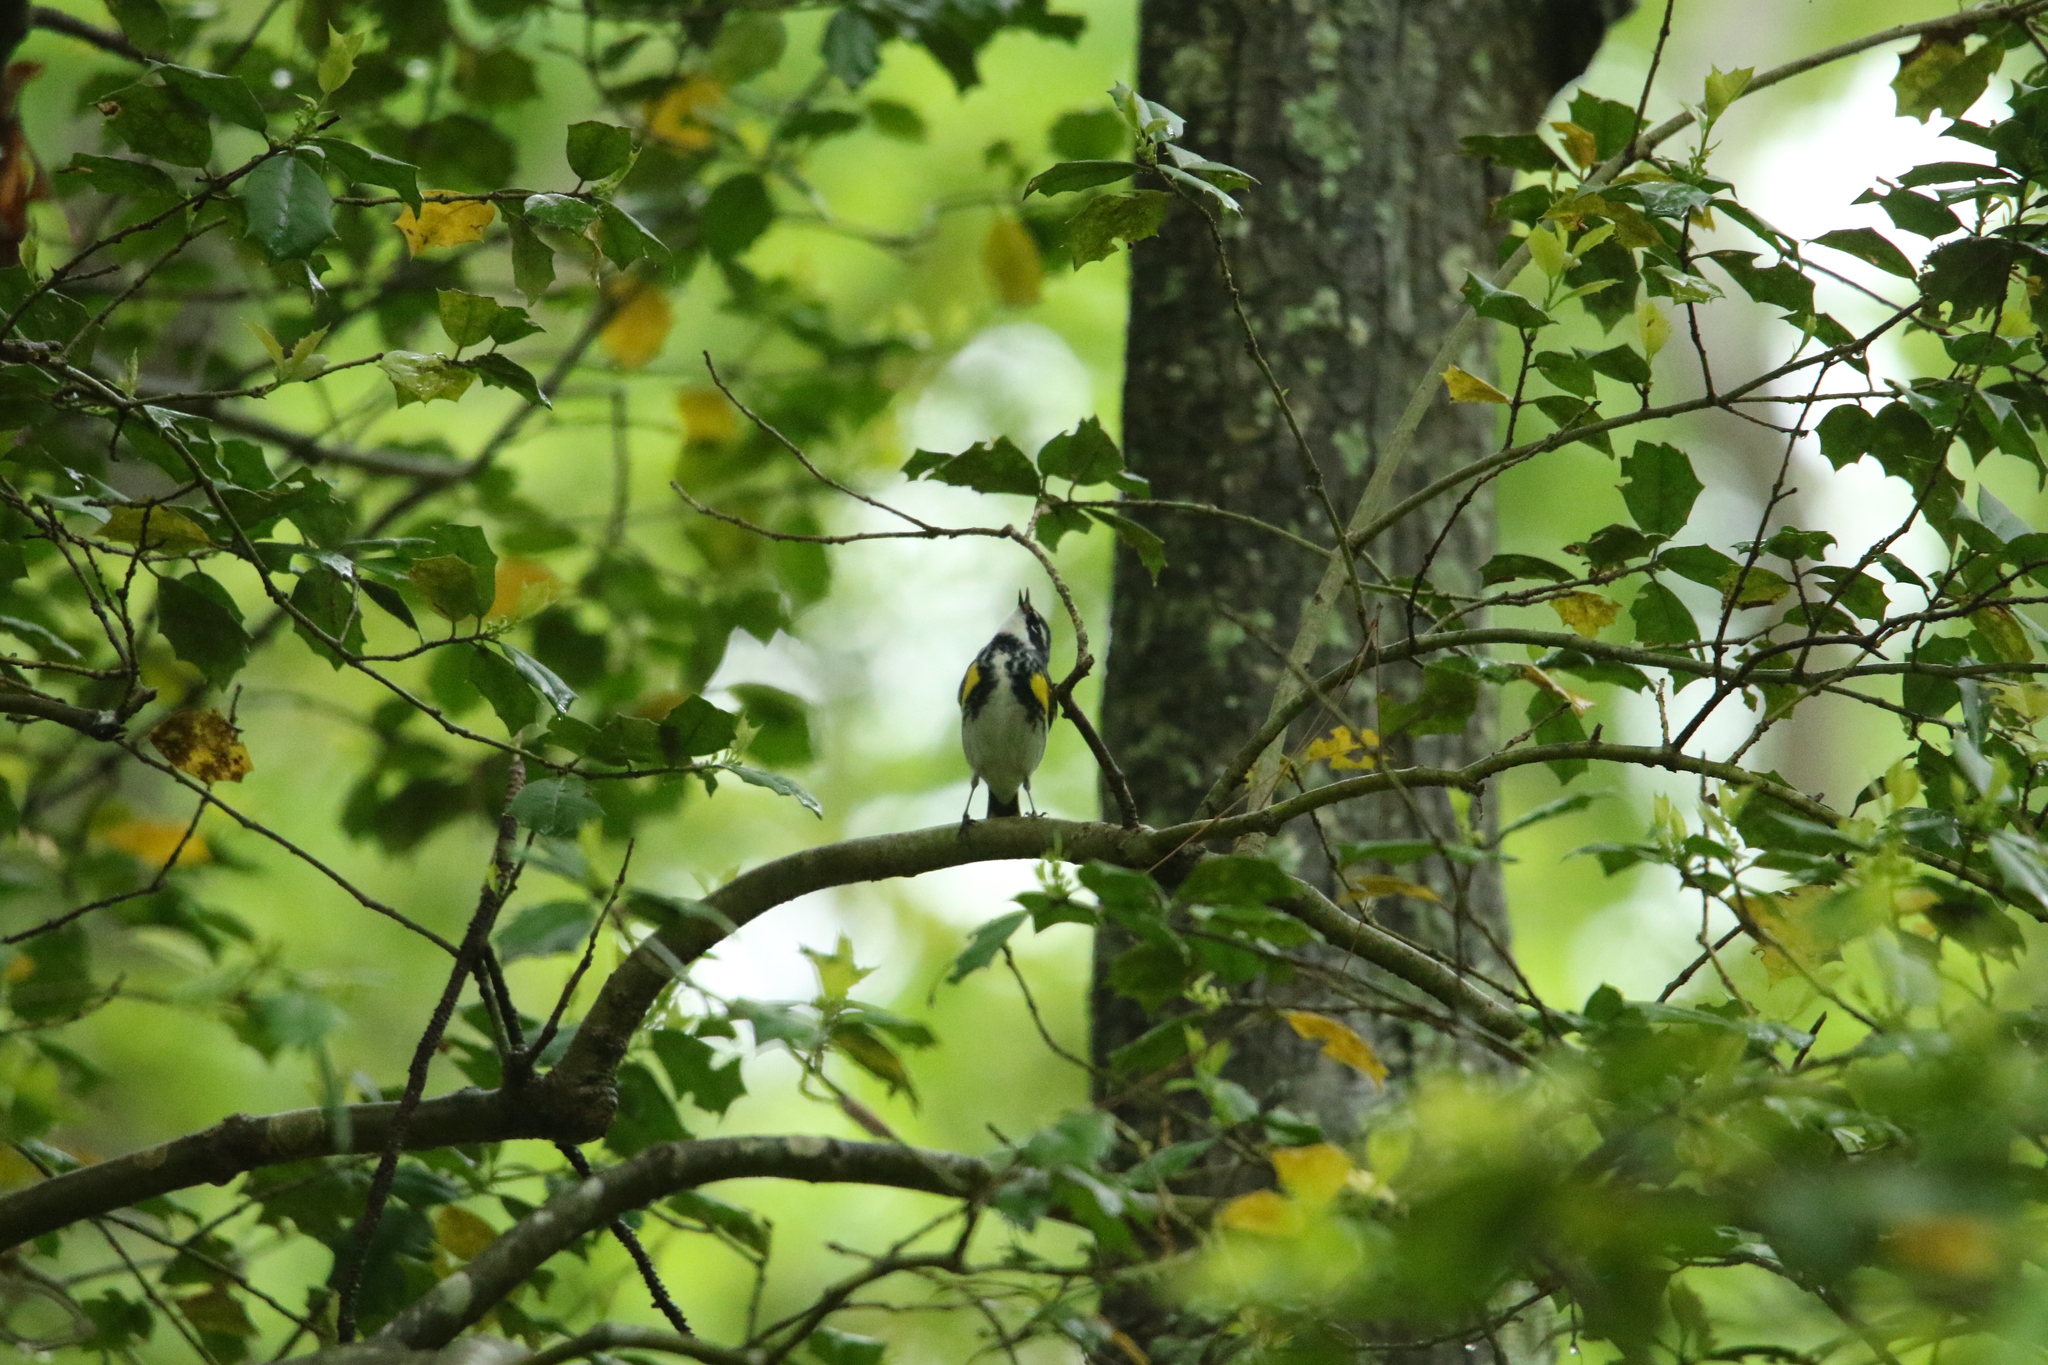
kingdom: Animalia
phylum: Chordata
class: Aves
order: Passeriformes
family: Parulidae
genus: Setophaga
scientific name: Setophaga coronata
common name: Myrtle warbler
